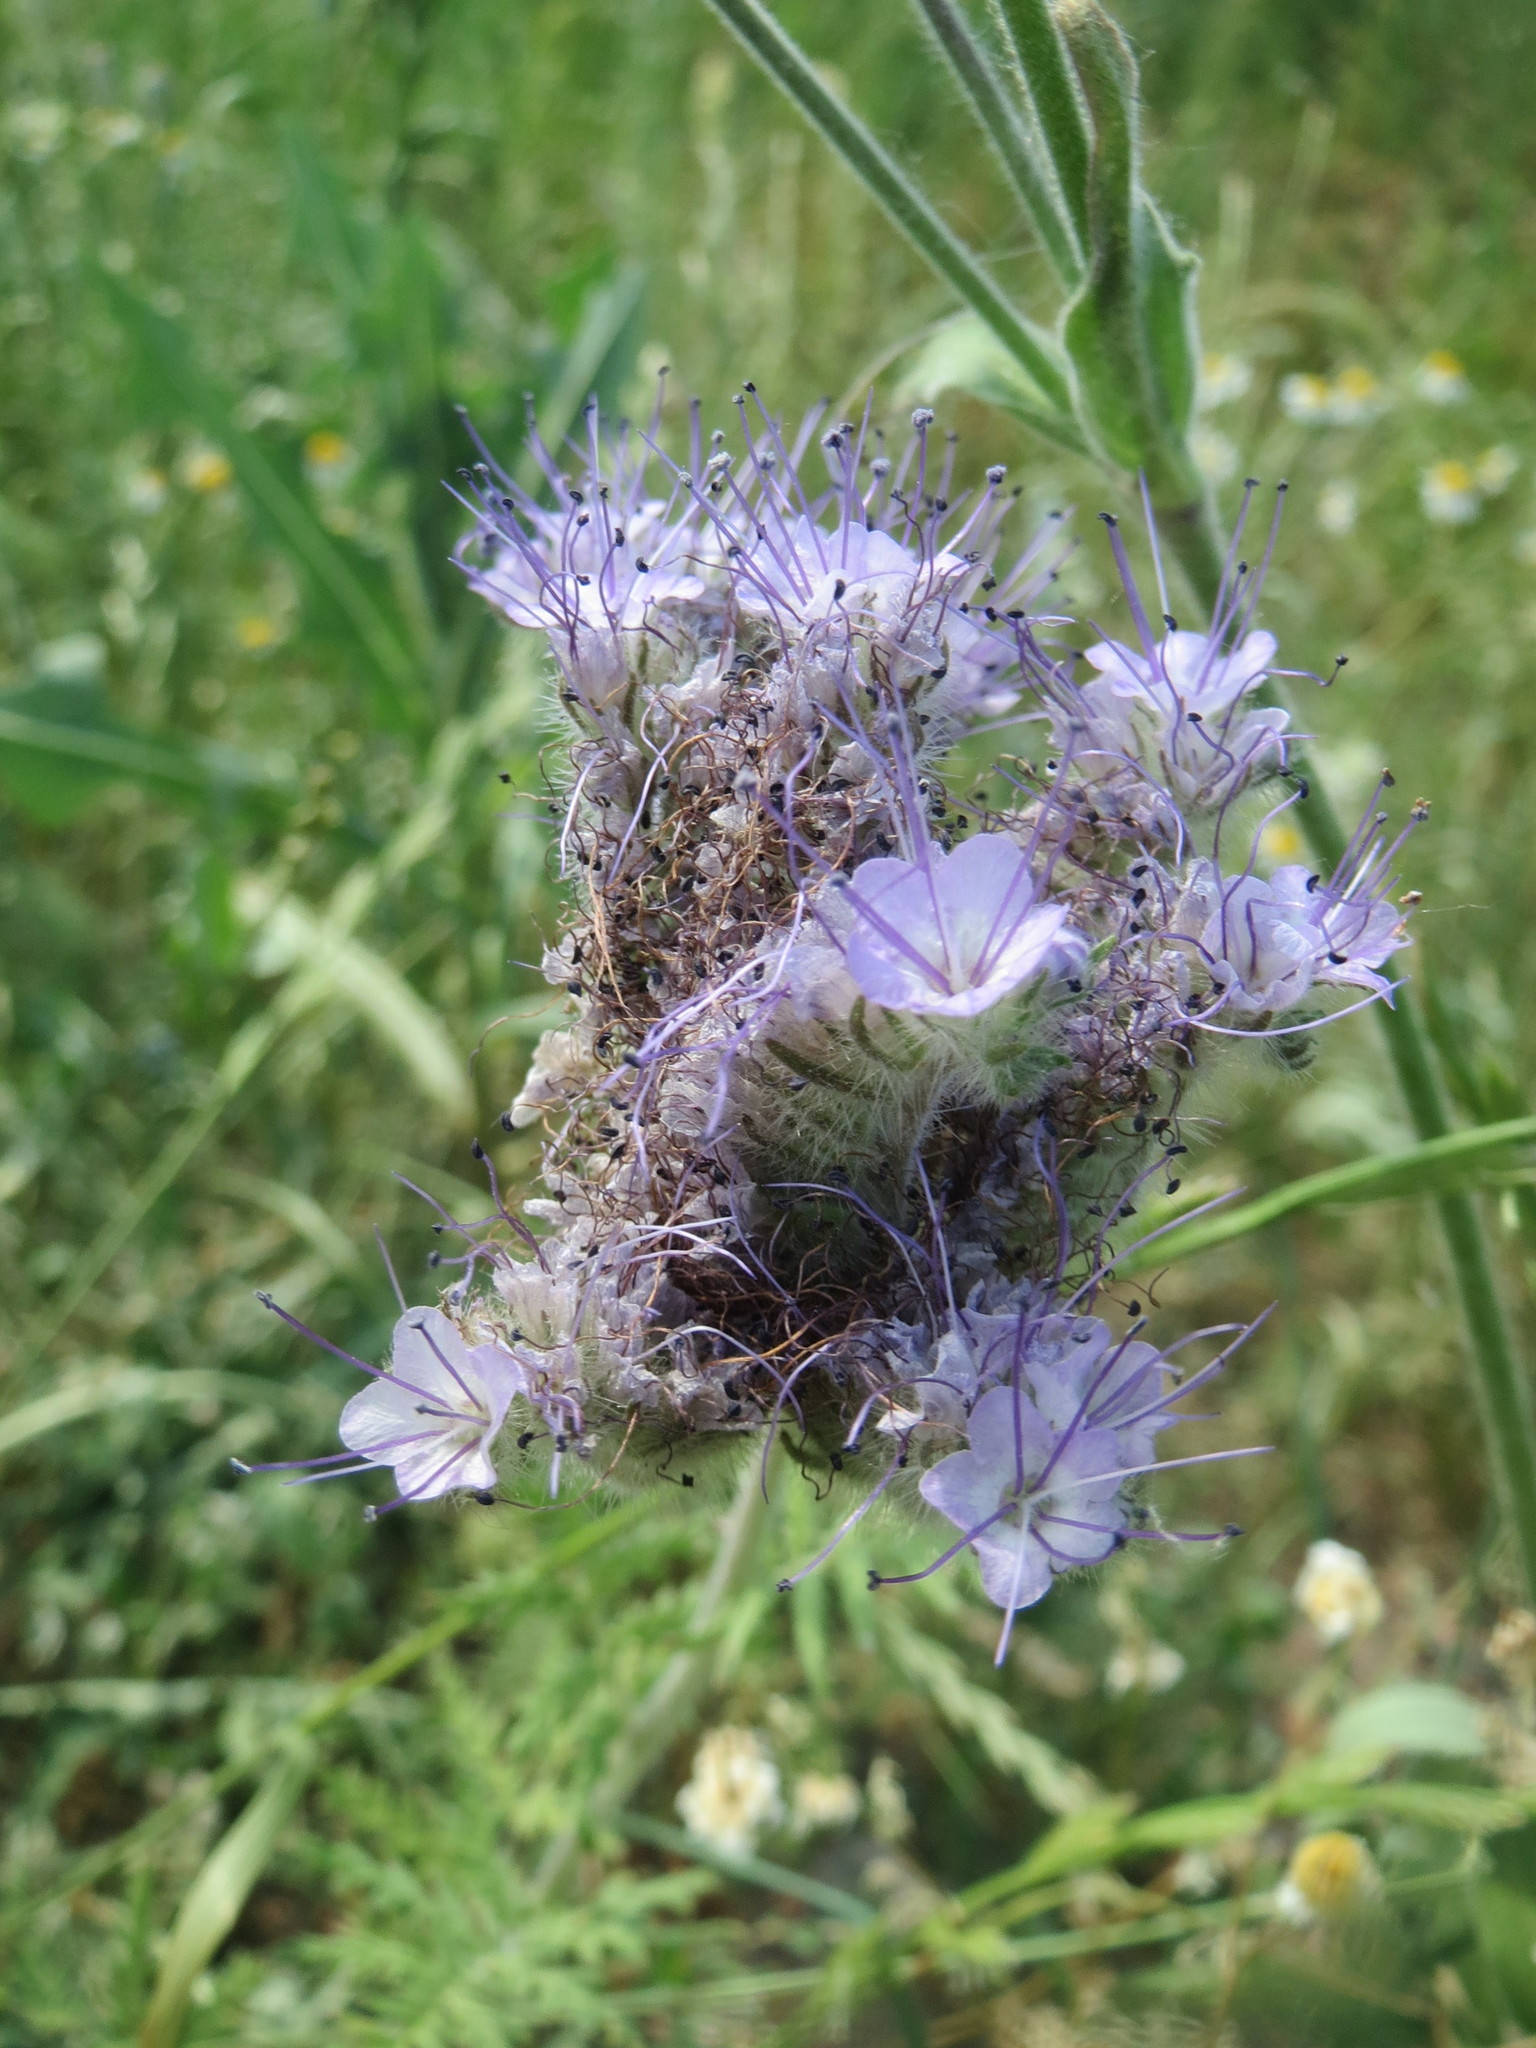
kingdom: Plantae
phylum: Tracheophyta
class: Magnoliopsida
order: Boraginales
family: Hydrophyllaceae
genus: Phacelia
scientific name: Phacelia tanacetifolia
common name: Phacelia
